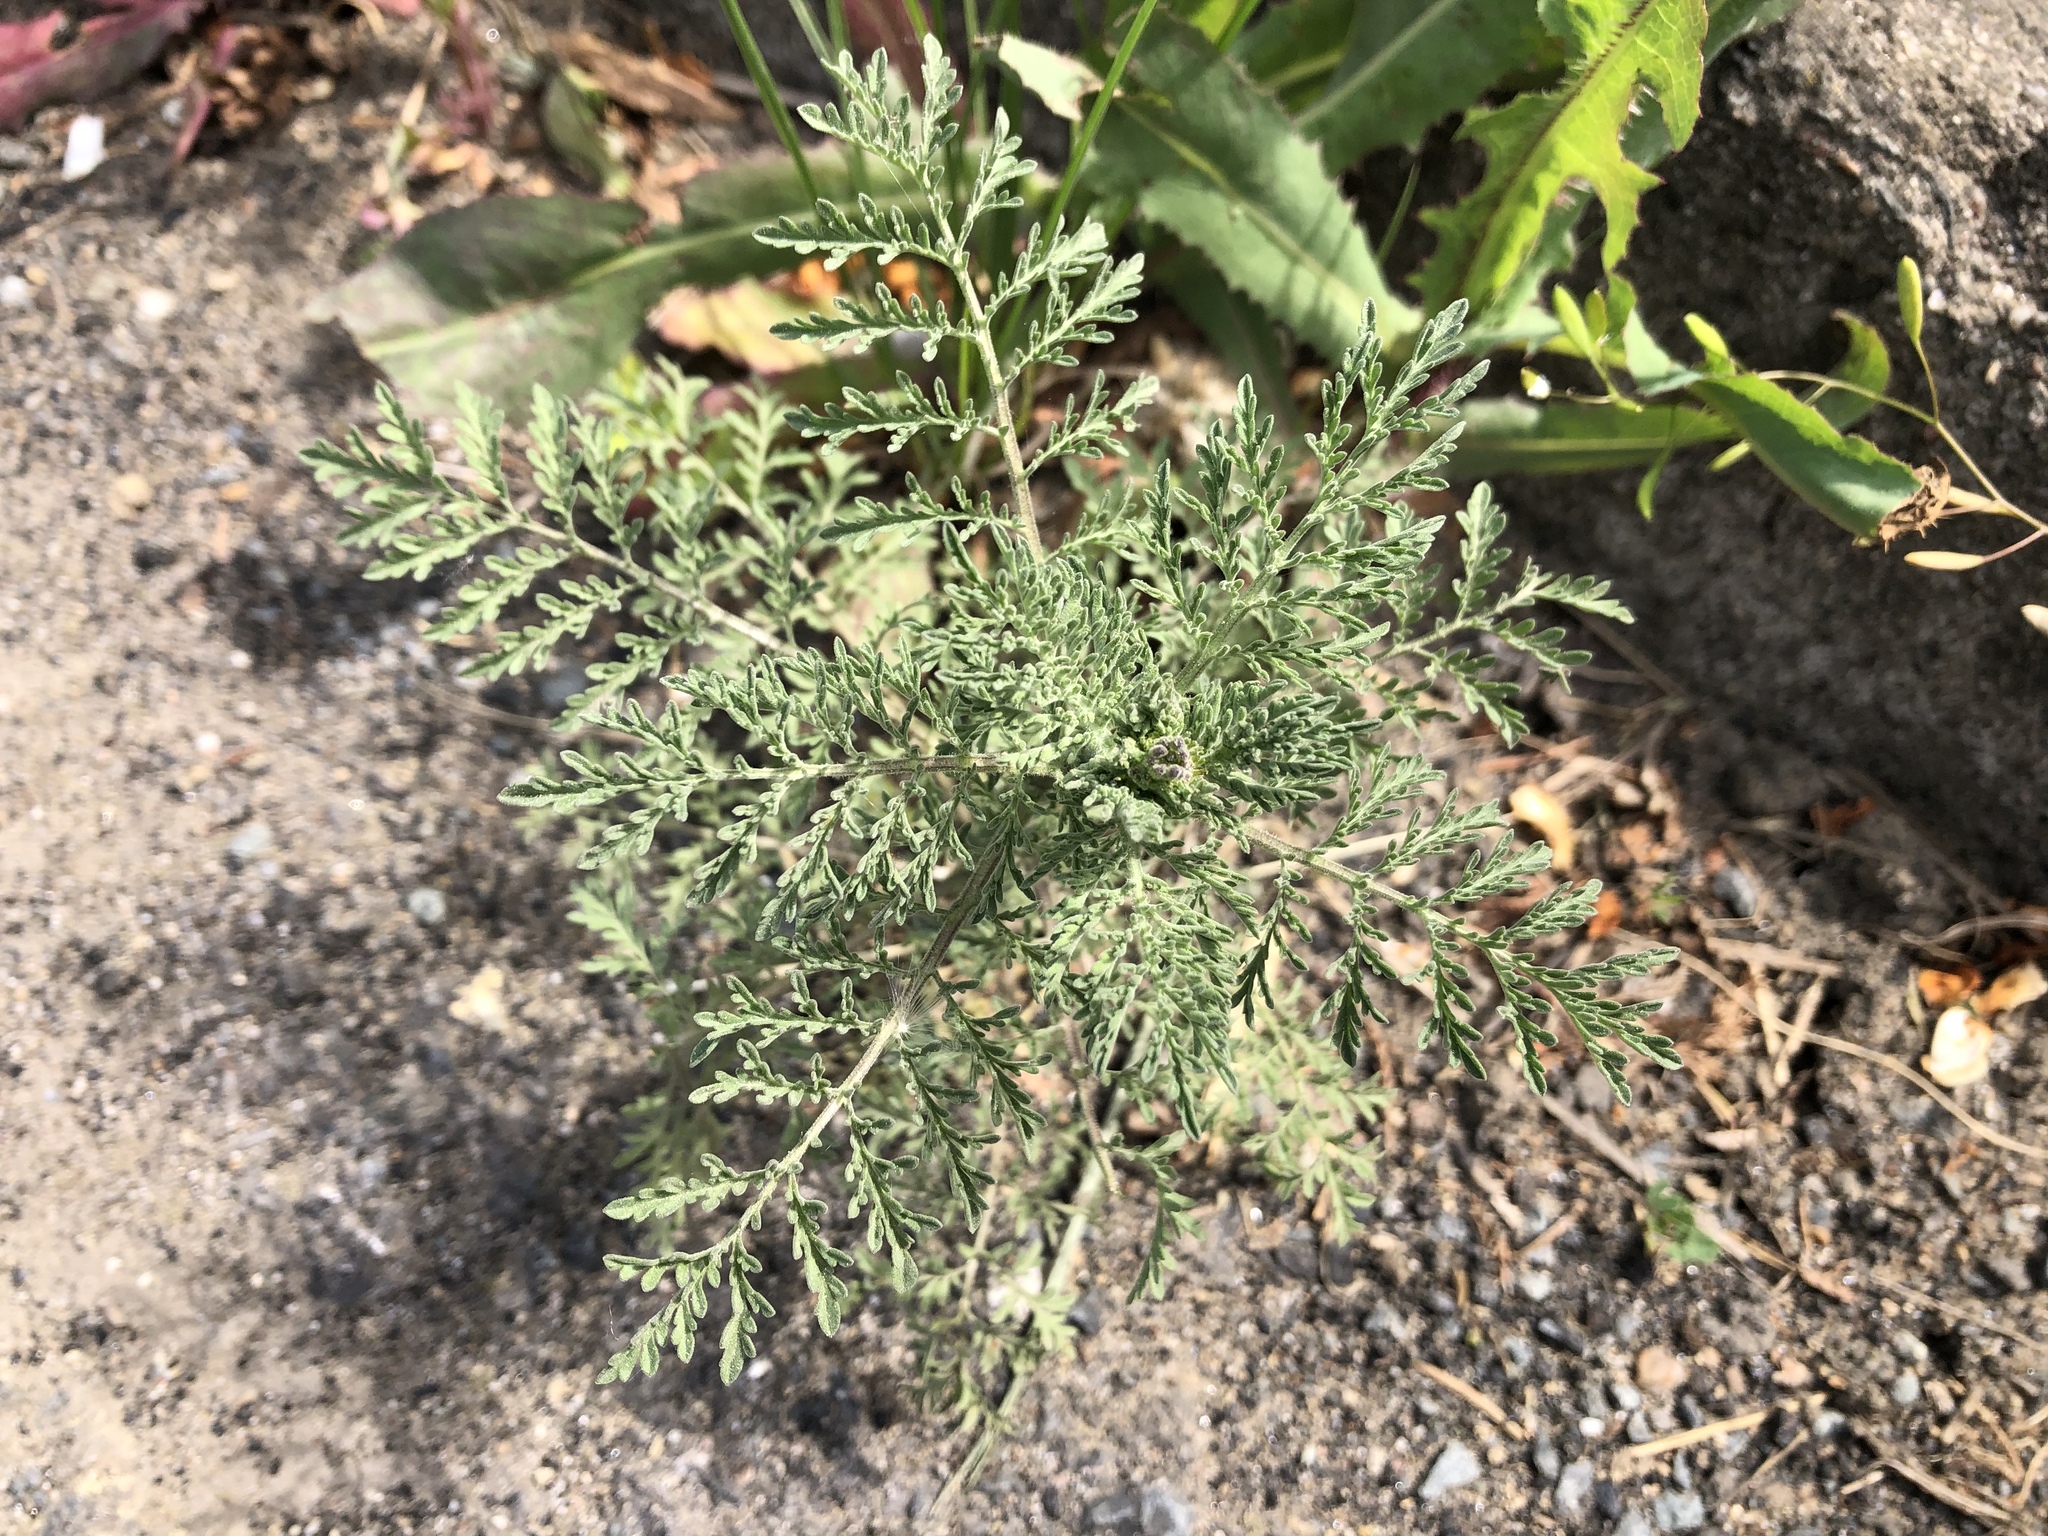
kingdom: Plantae
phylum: Tracheophyta
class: Magnoliopsida
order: Brassicales
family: Brassicaceae
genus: Descurainia
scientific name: Descurainia sophia
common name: Flixweed
